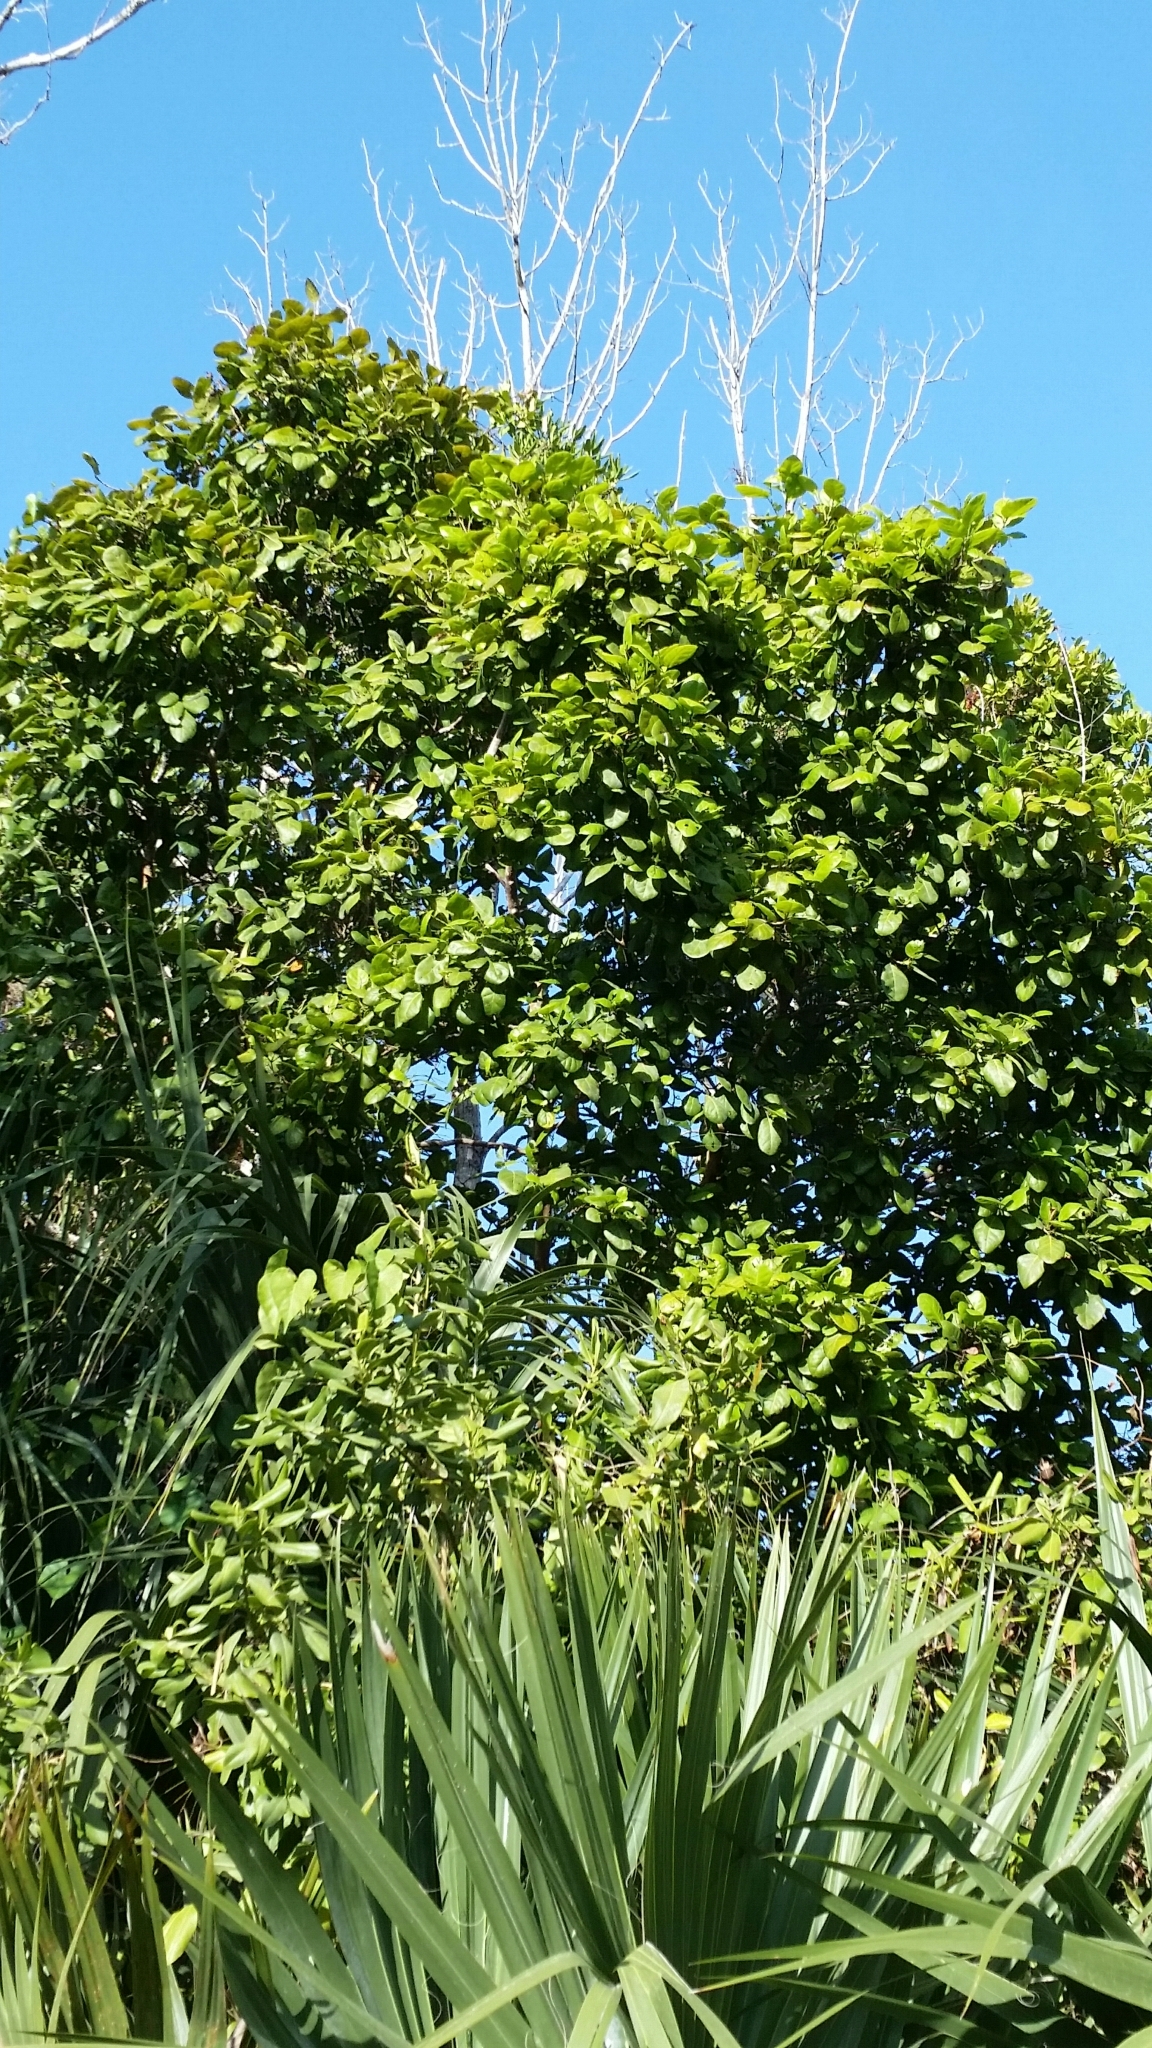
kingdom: Plantae
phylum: Tracheophyta
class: Magnoliopsida
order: Caryophyllales
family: Polygonaceae
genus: Coccoloba
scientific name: Coccoloba diversifolia
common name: Pigeon-plum
